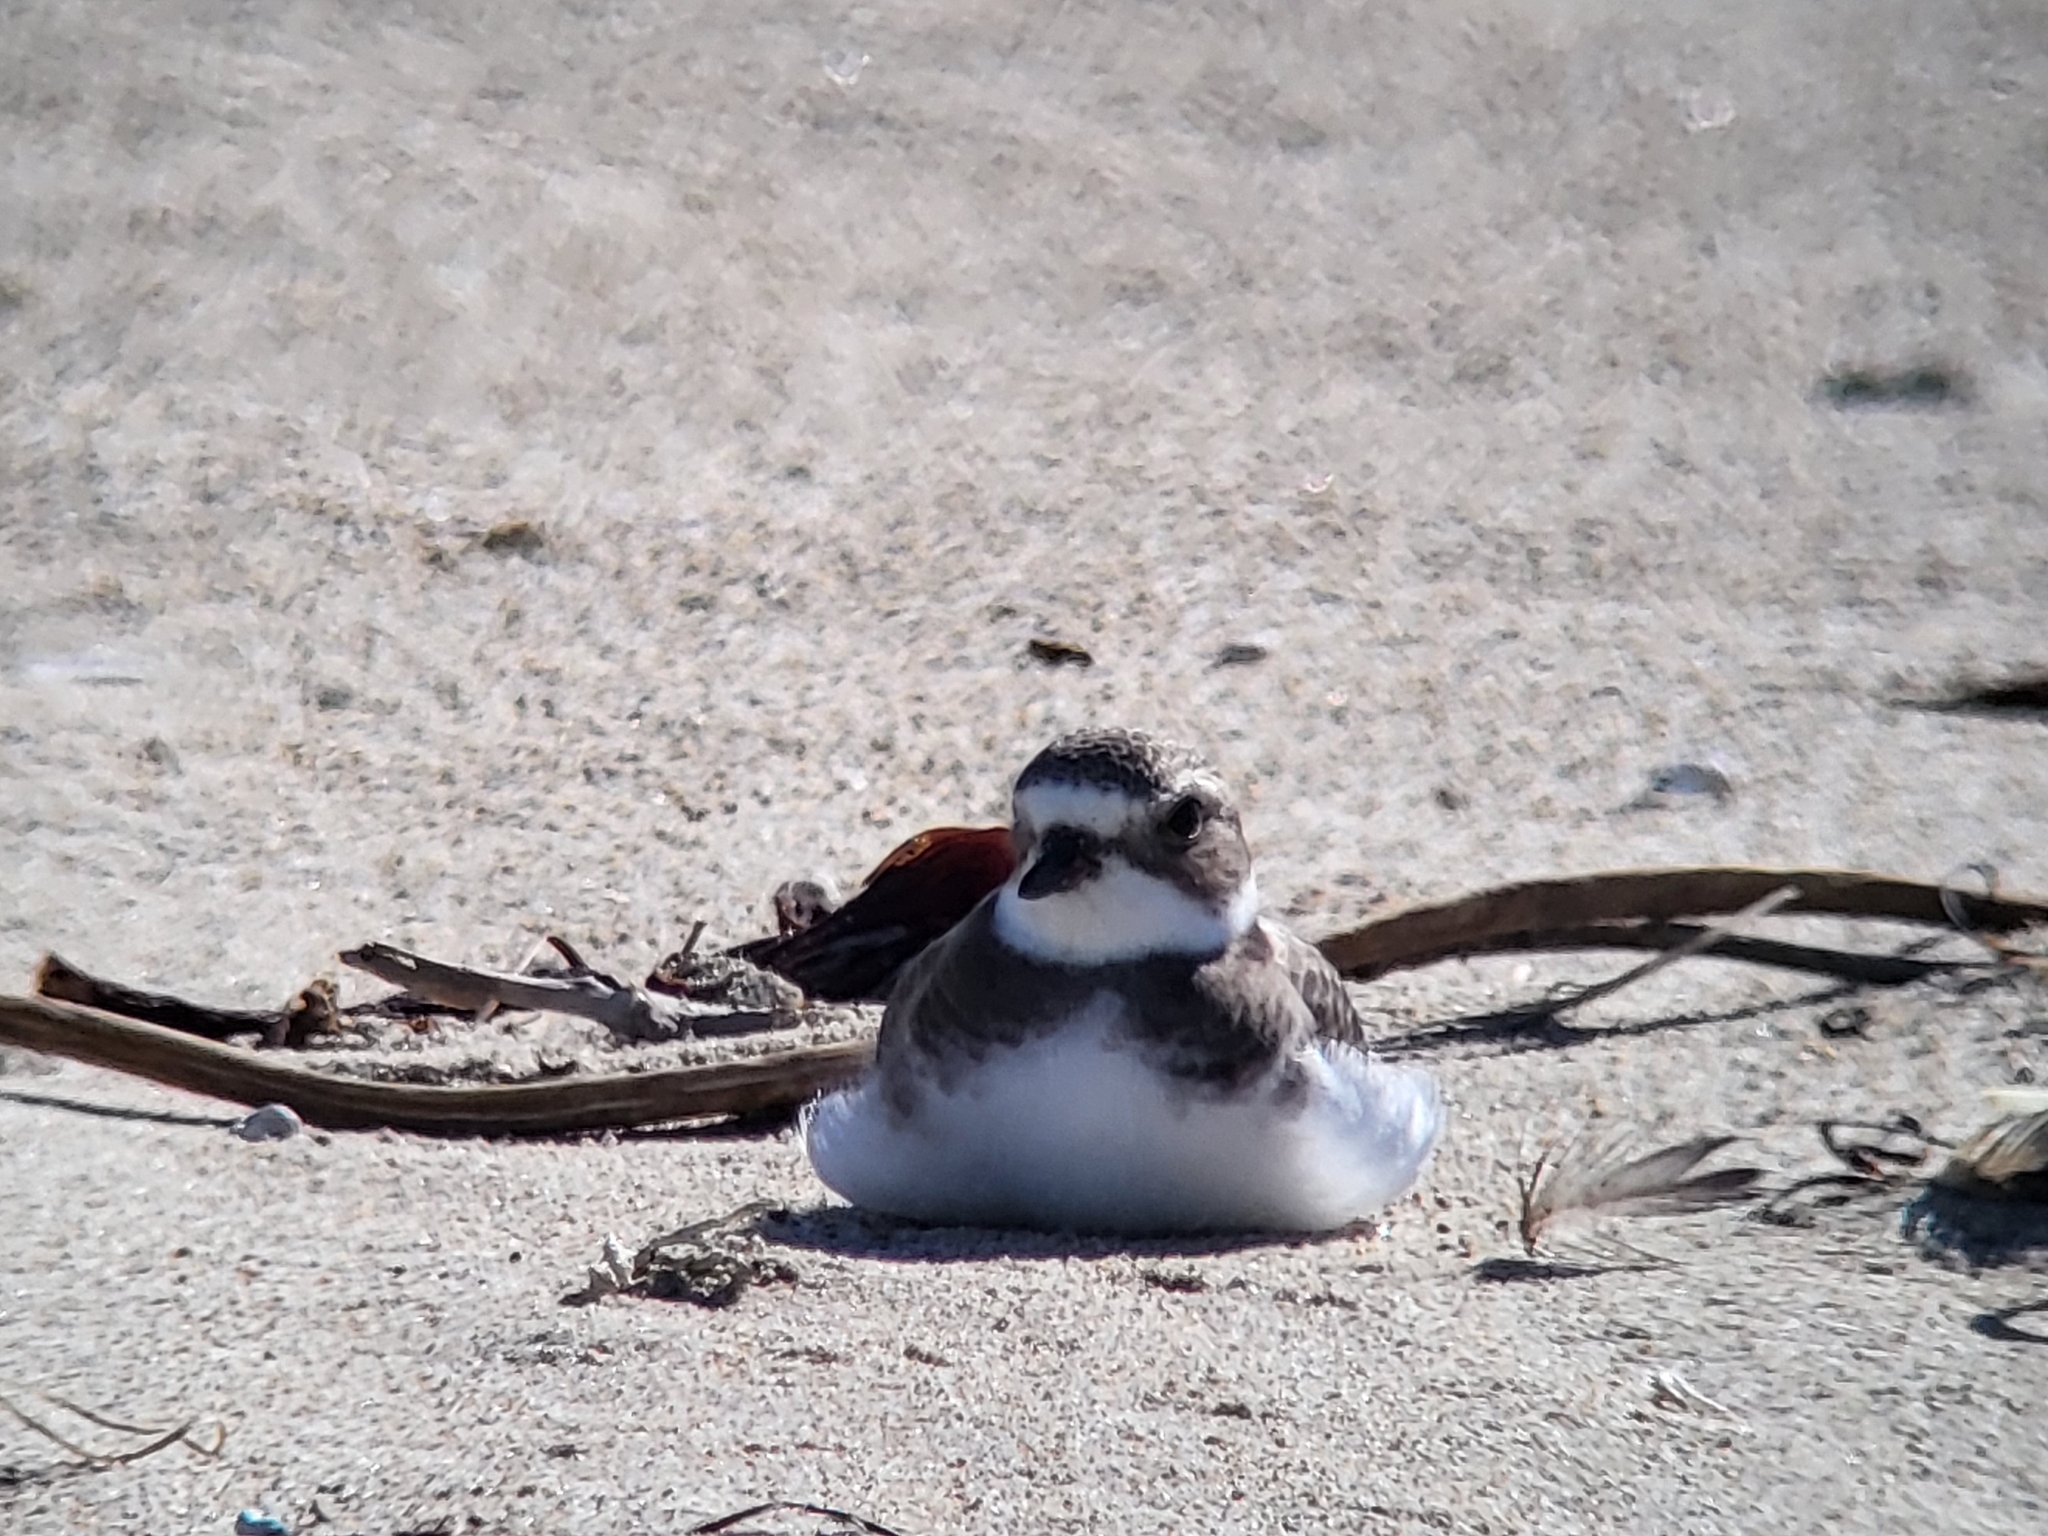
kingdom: Animalia
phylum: Chordata
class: Aves
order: Charadriiformes
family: Charadriidae
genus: Charadrius
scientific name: Charadrius semipalmatus
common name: Semipalmated plover
